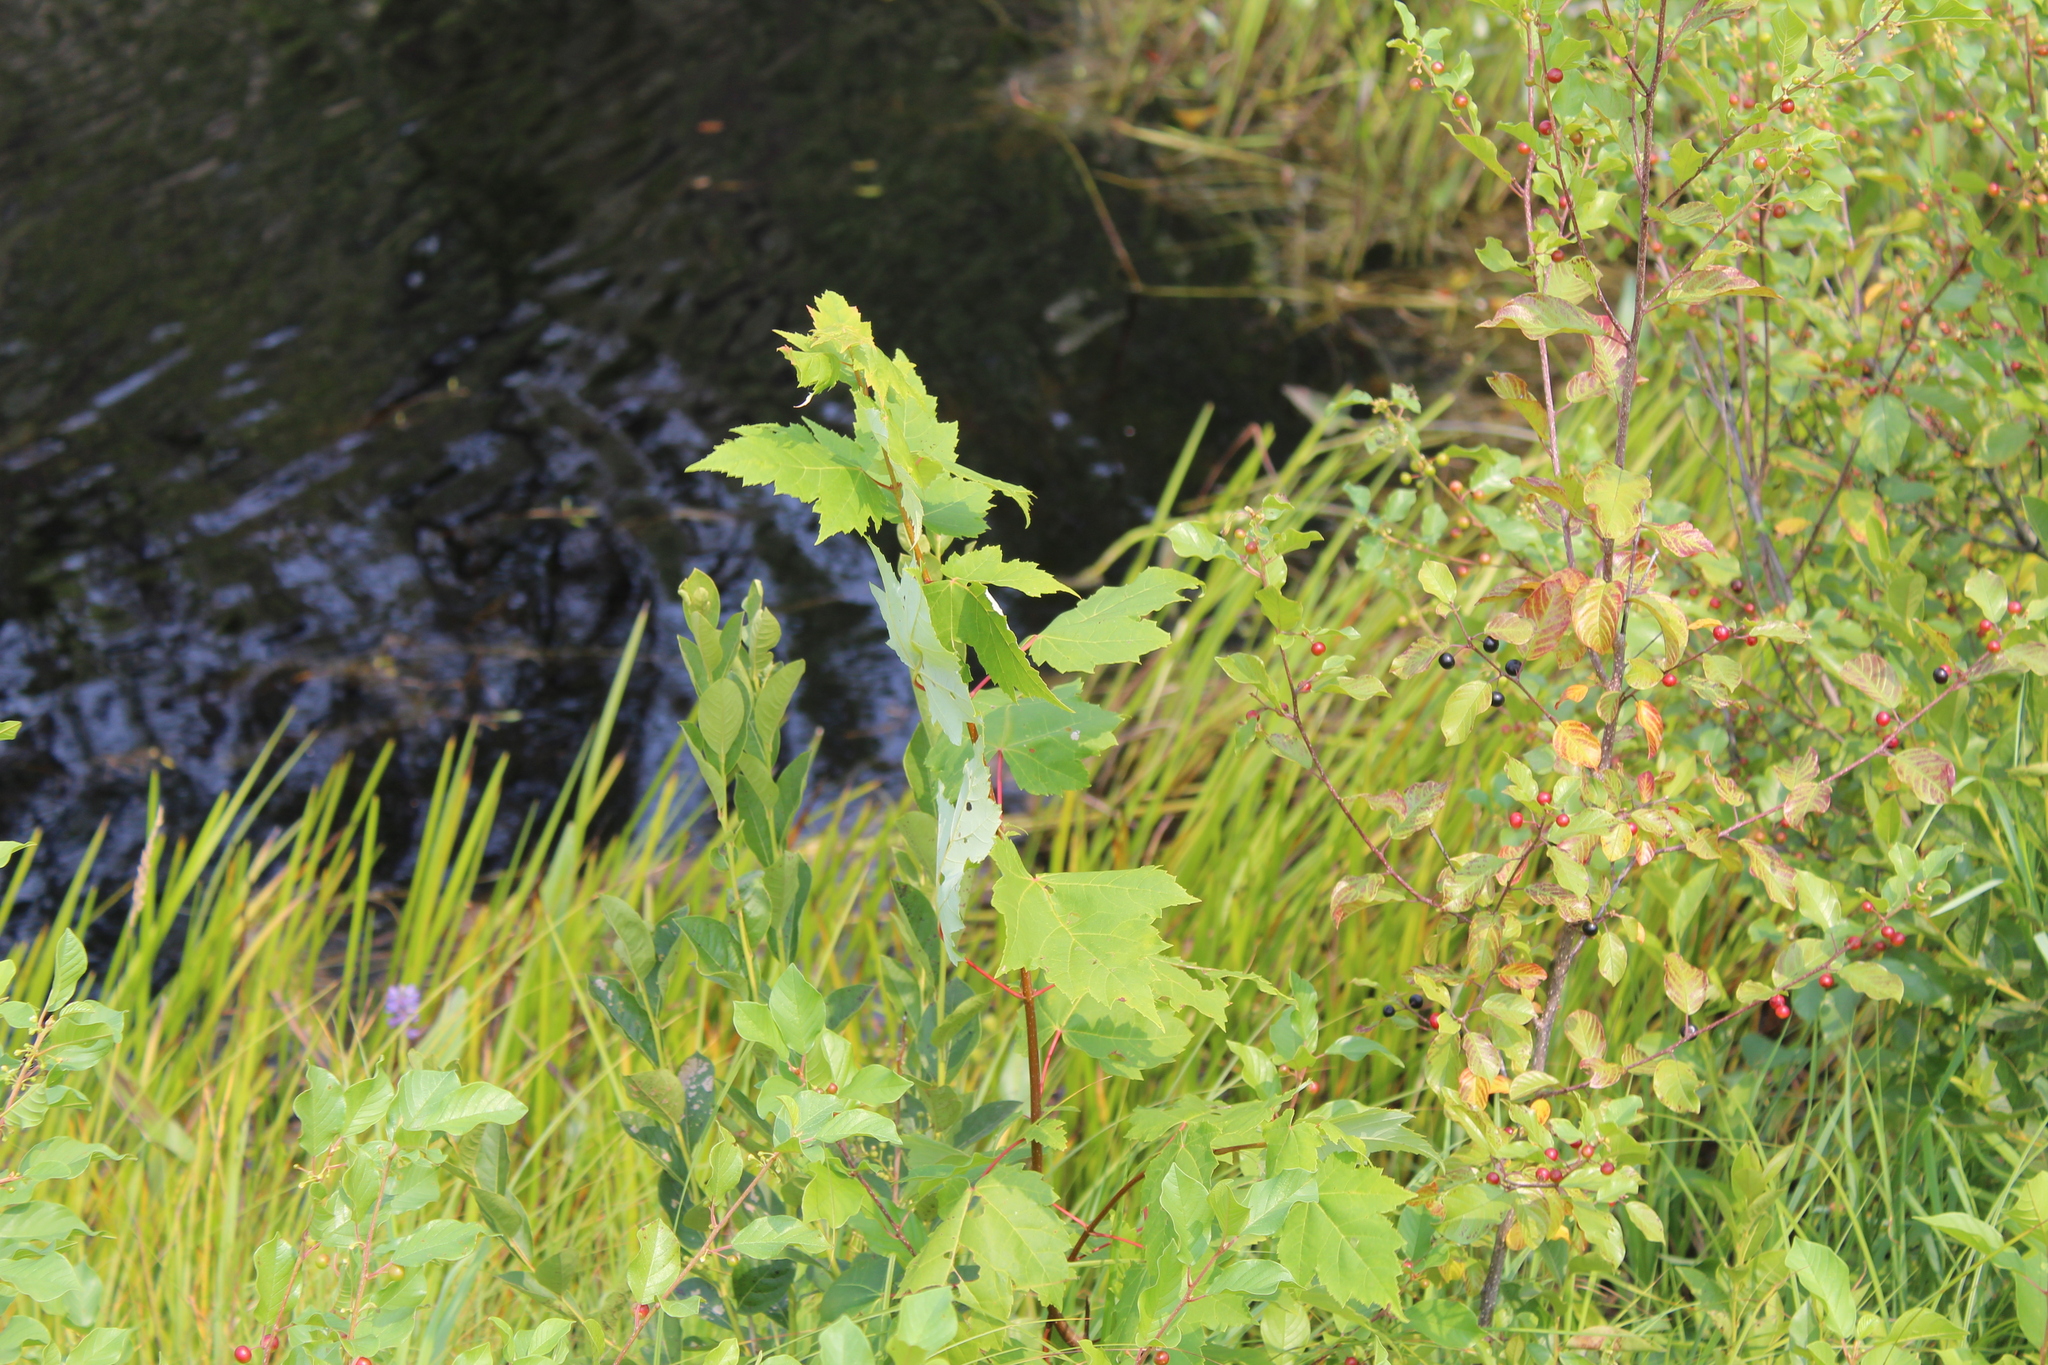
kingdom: Plantae
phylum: Tracheophyta
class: Magnoliopsida
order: Sapindales
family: Sapindaceae
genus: Acer
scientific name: Acer rubrum
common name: Red maple
